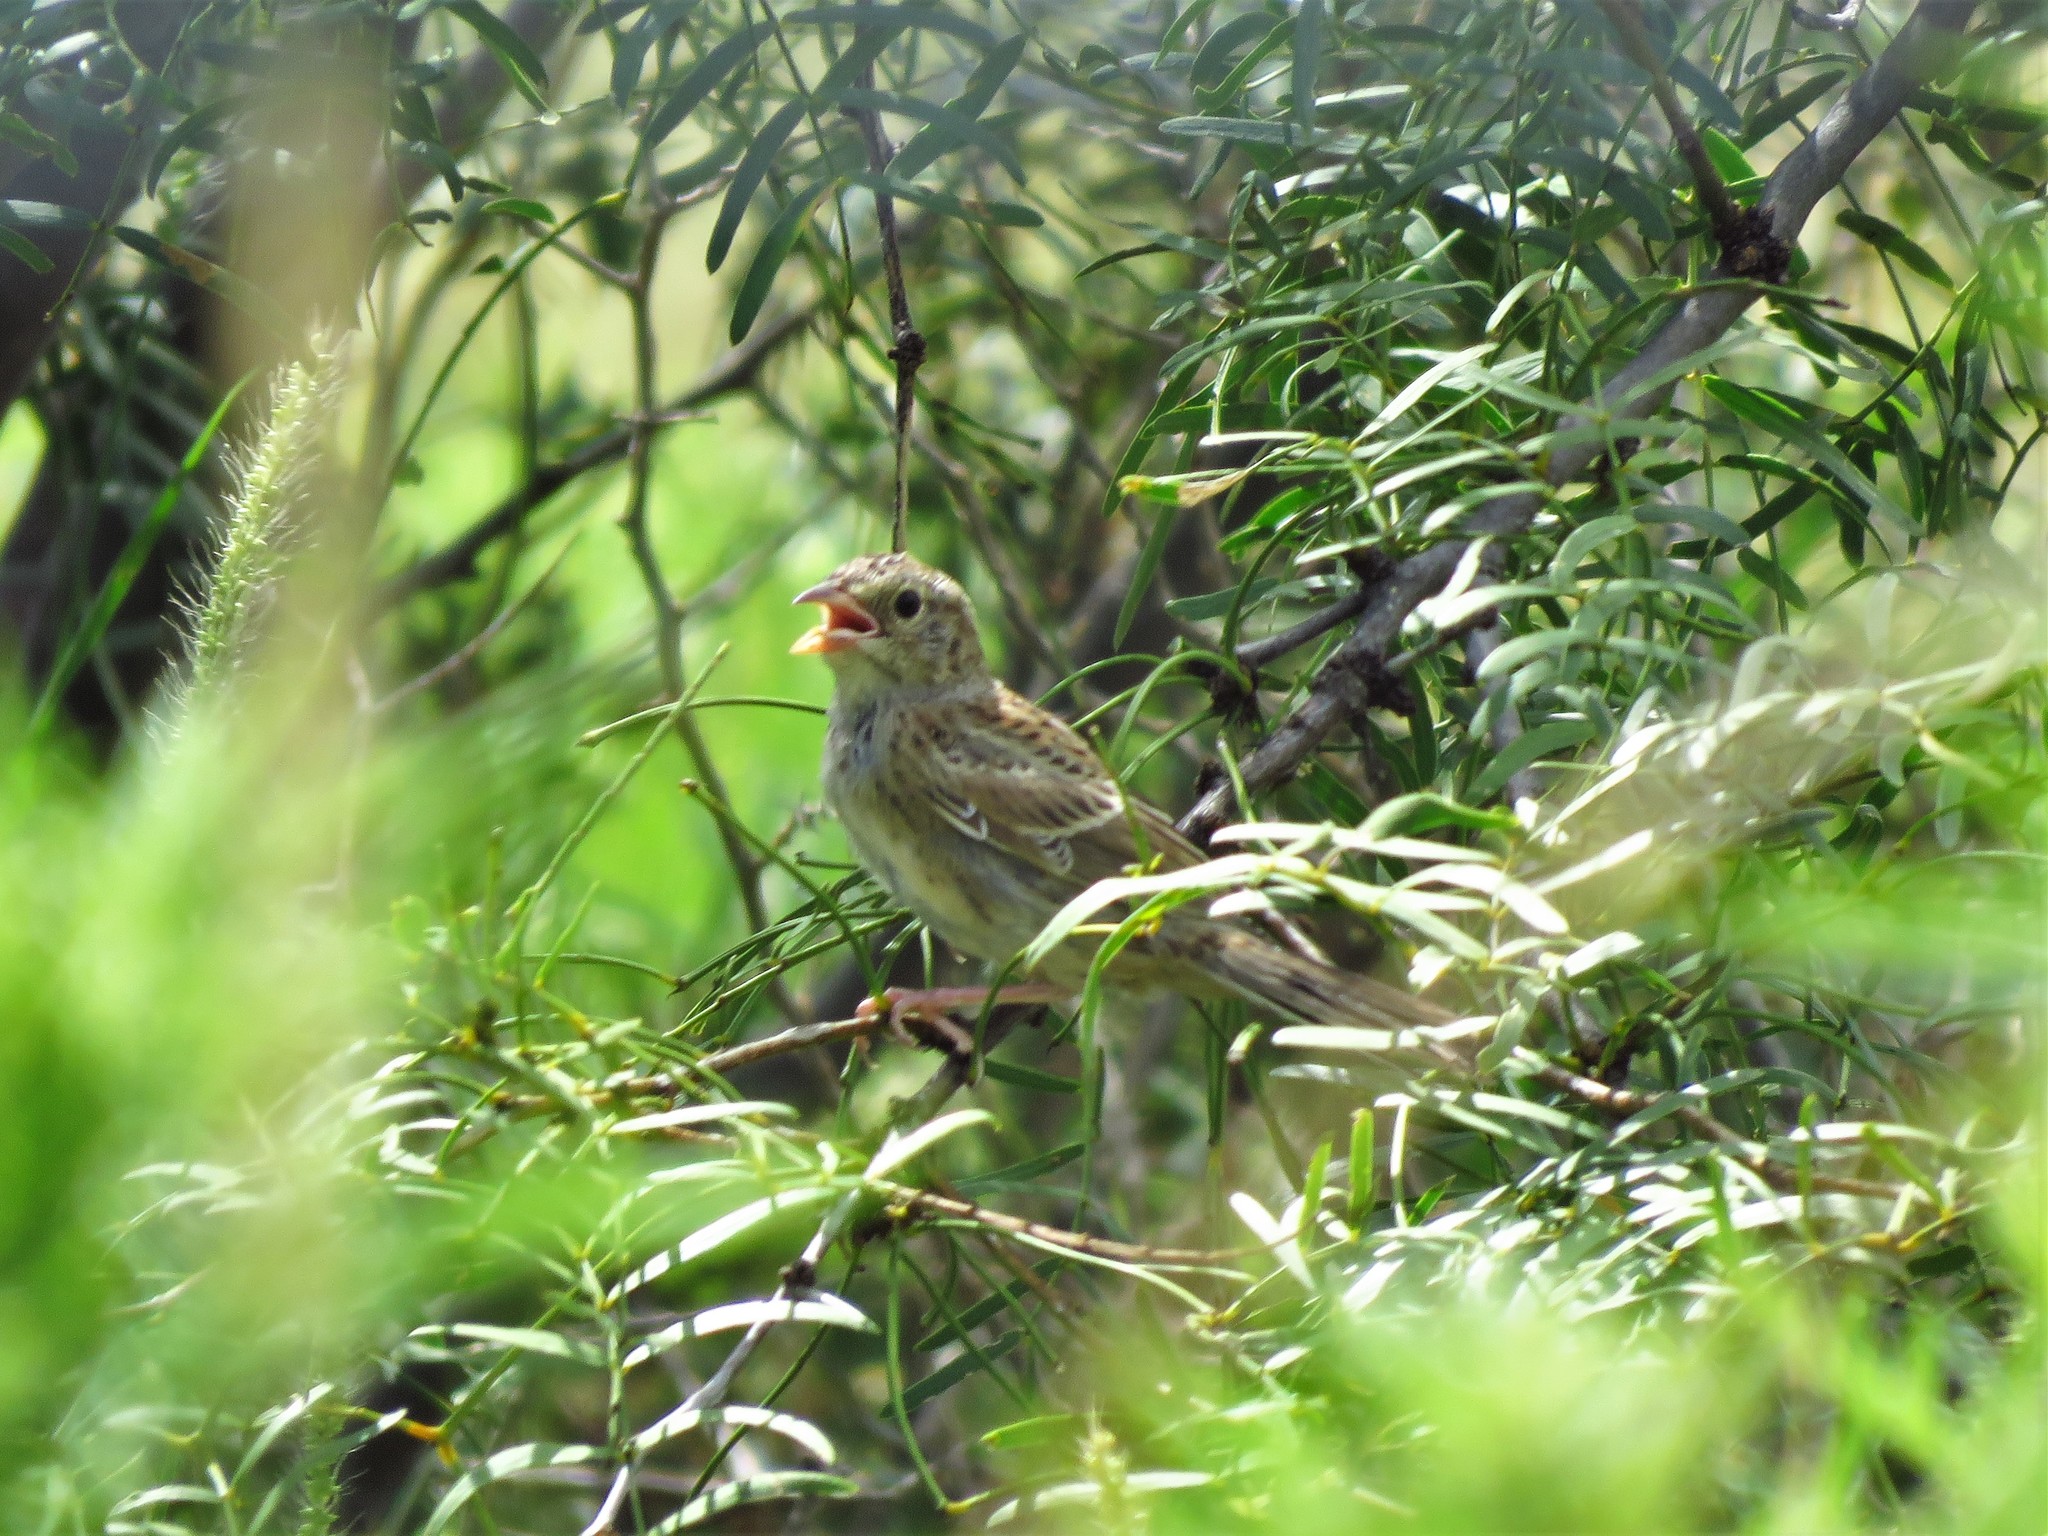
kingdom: Animalia
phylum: Chordata
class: Aves
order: Passeriformes
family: Passerellidae
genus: Peucaea
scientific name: Peucaea cassinii
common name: Cassin's sparrow
